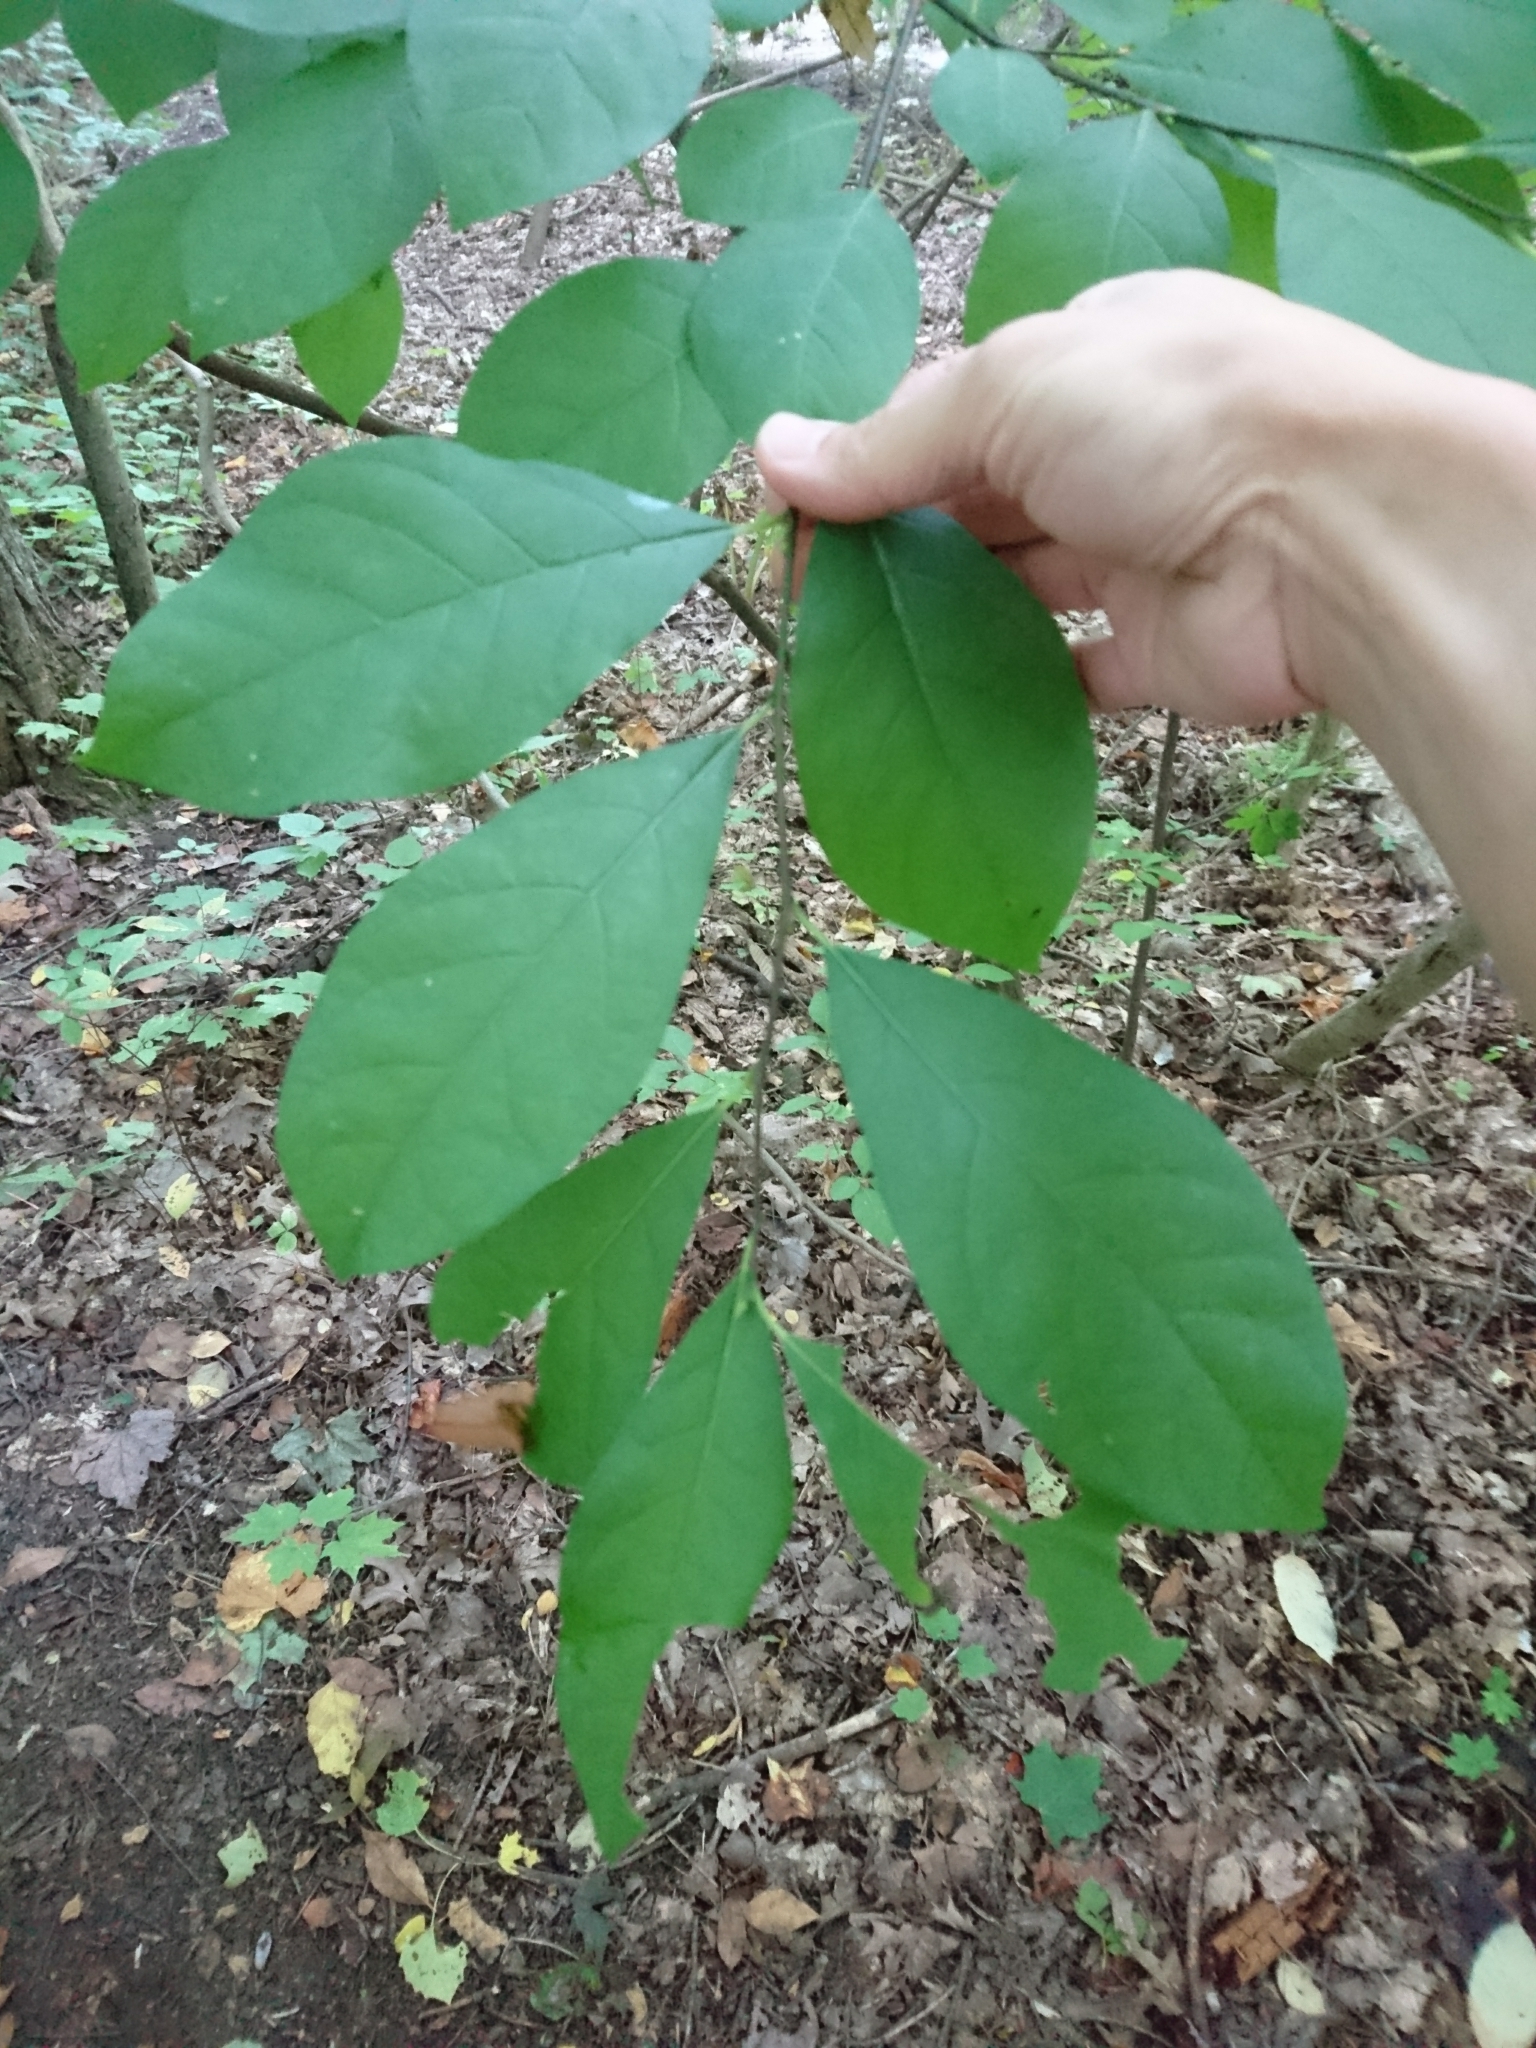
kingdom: Plantae
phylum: Tracheophyta
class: Magnoliopsida
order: Laurales
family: Lauraceae
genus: Lindera
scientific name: Lindera benzoin
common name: Spicebush
